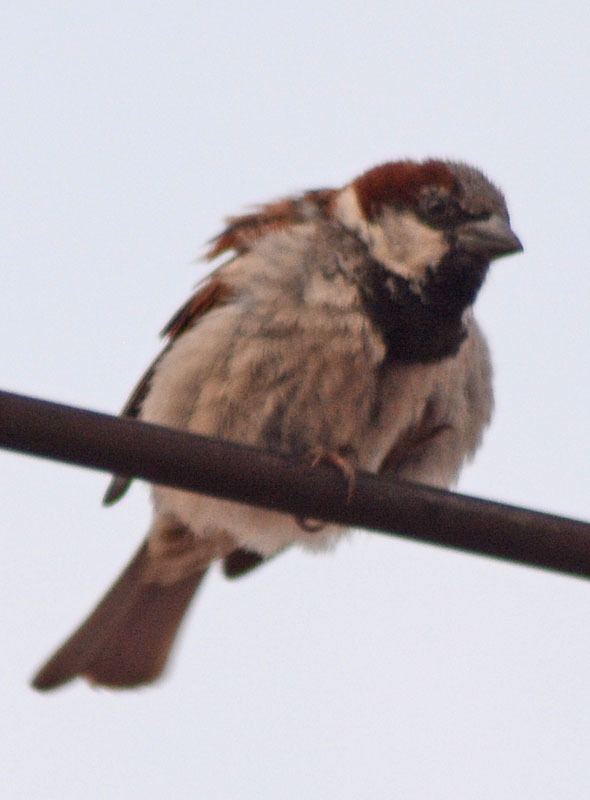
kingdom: Animalia
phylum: Chordata
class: Aves
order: Passeriformes
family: Passeridae
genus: Passer
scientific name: Passer domesticus
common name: House sparrow
